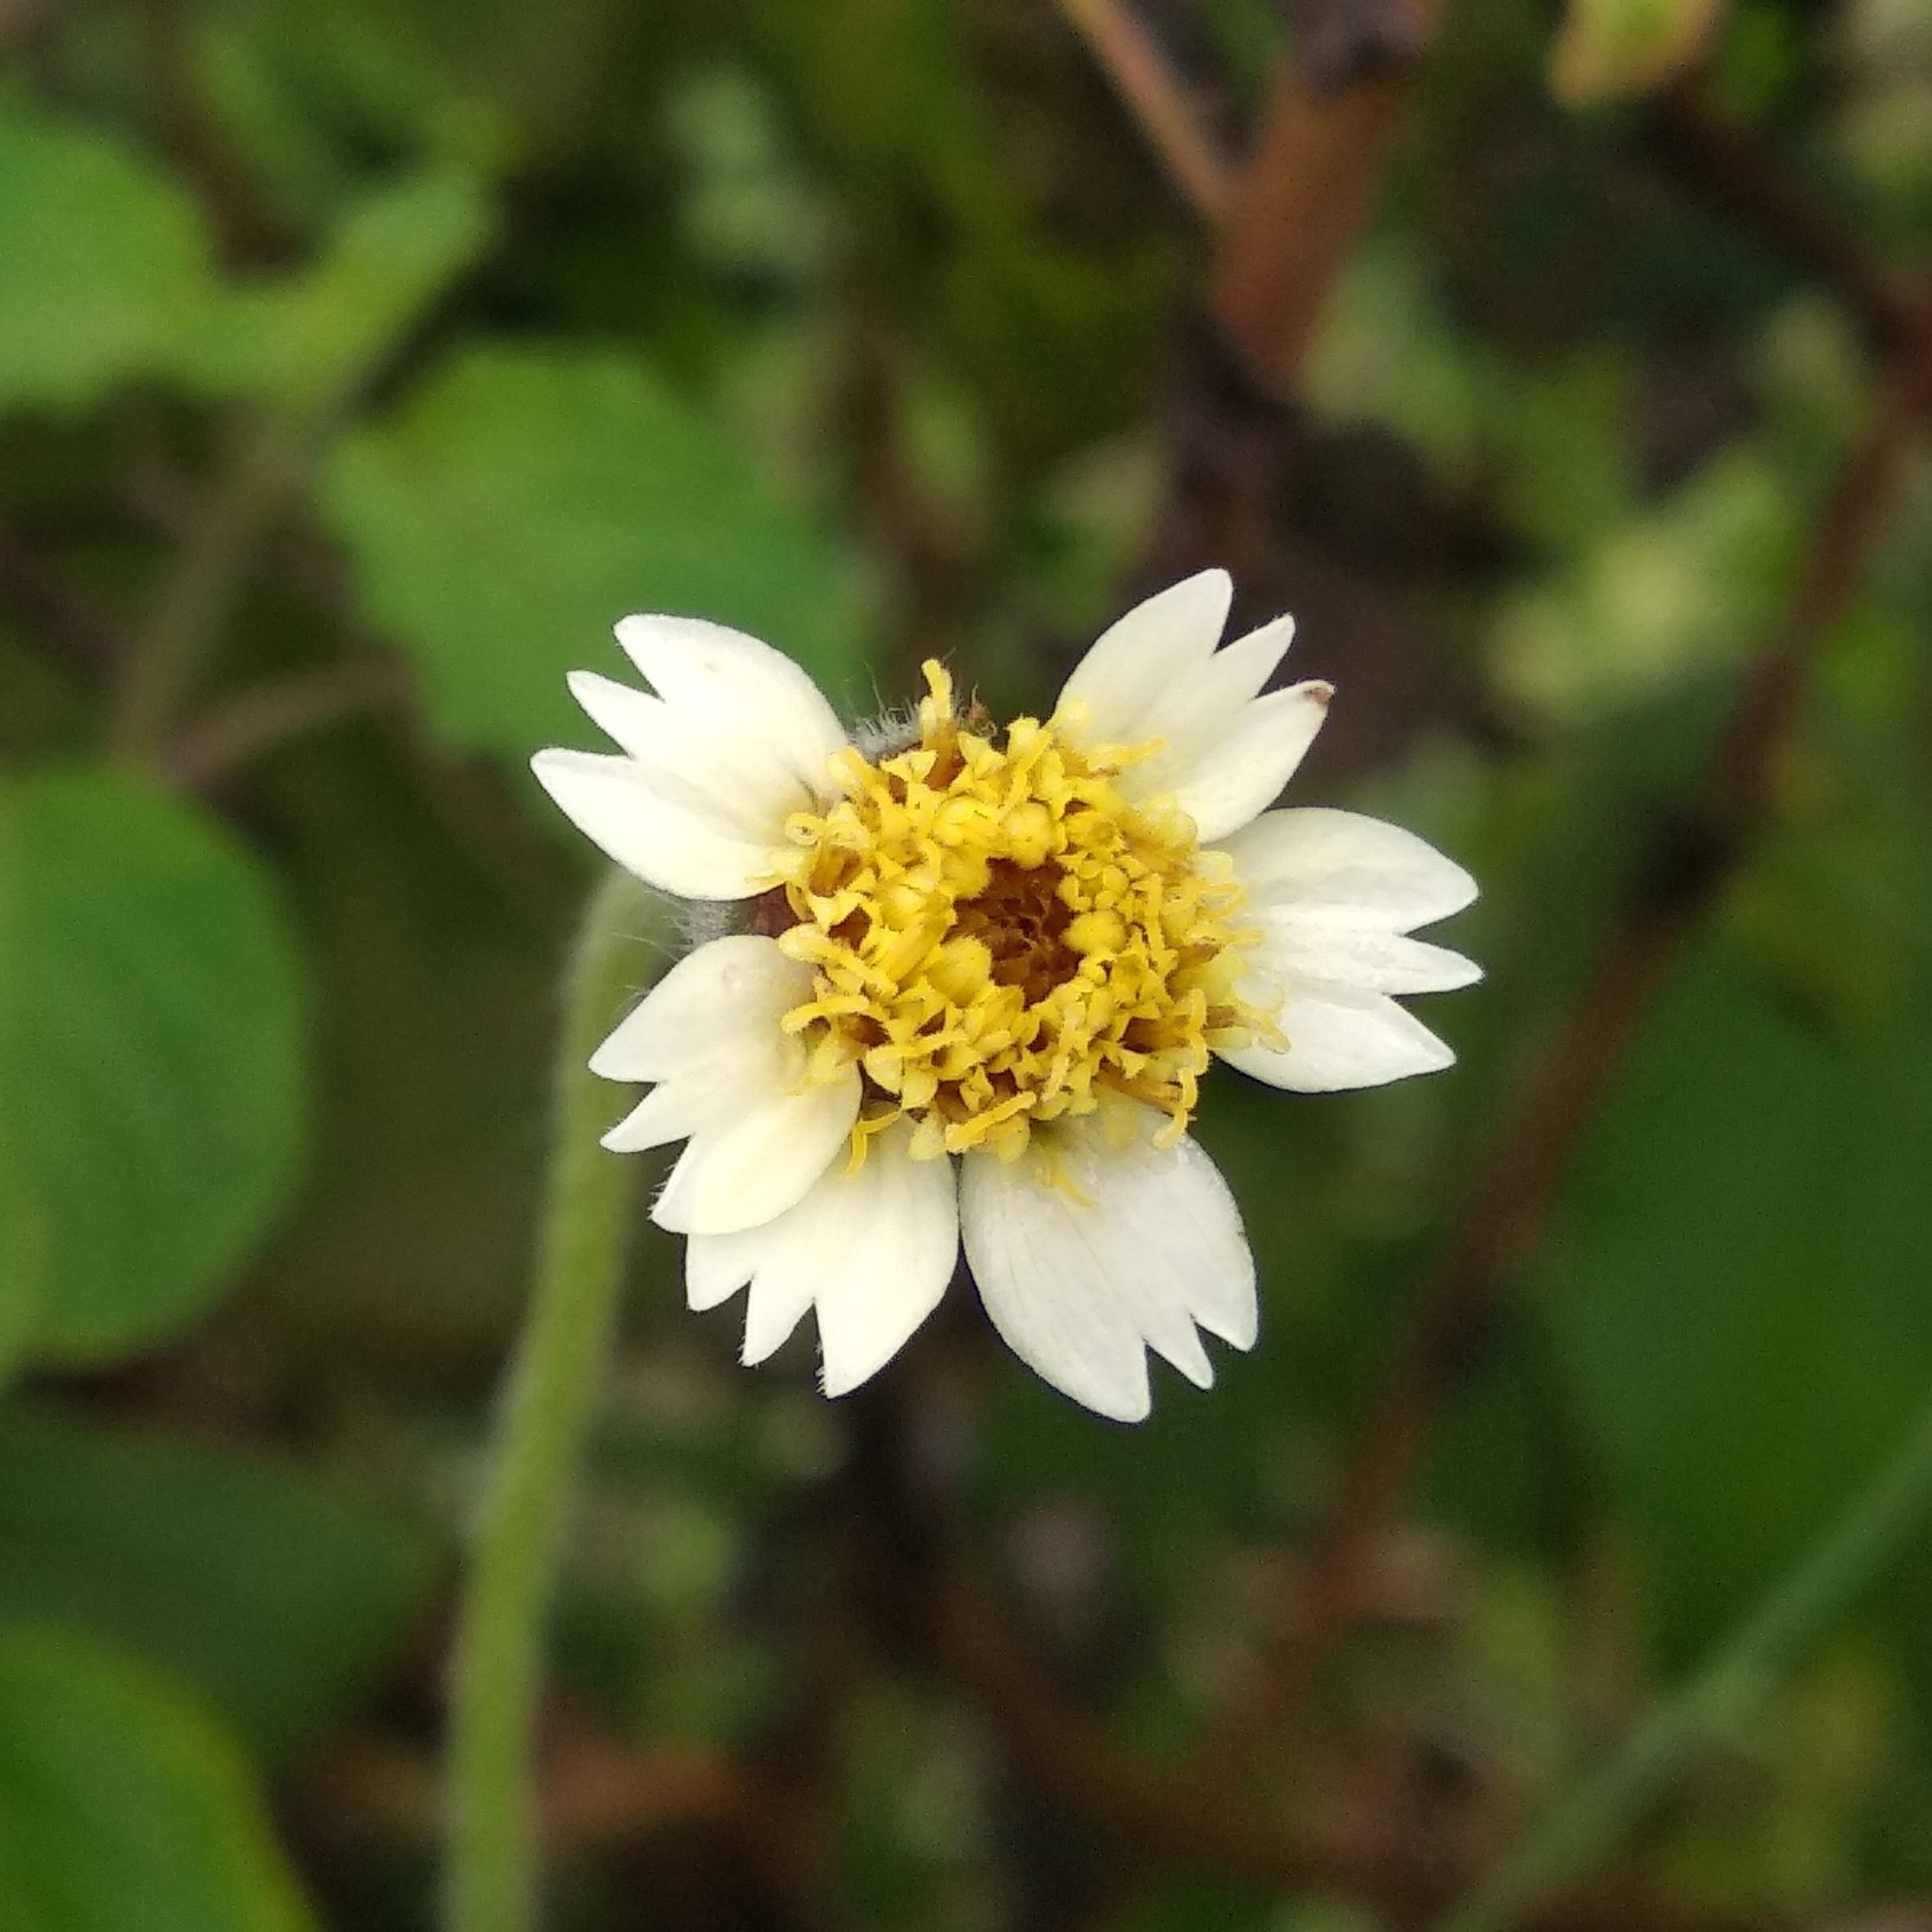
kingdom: Plantae
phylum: Tracheophyta
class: Magnoliopsida
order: Asterales
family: Asteraceae
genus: Tridax
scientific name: Tridax procumbens
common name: Coatbuttons
